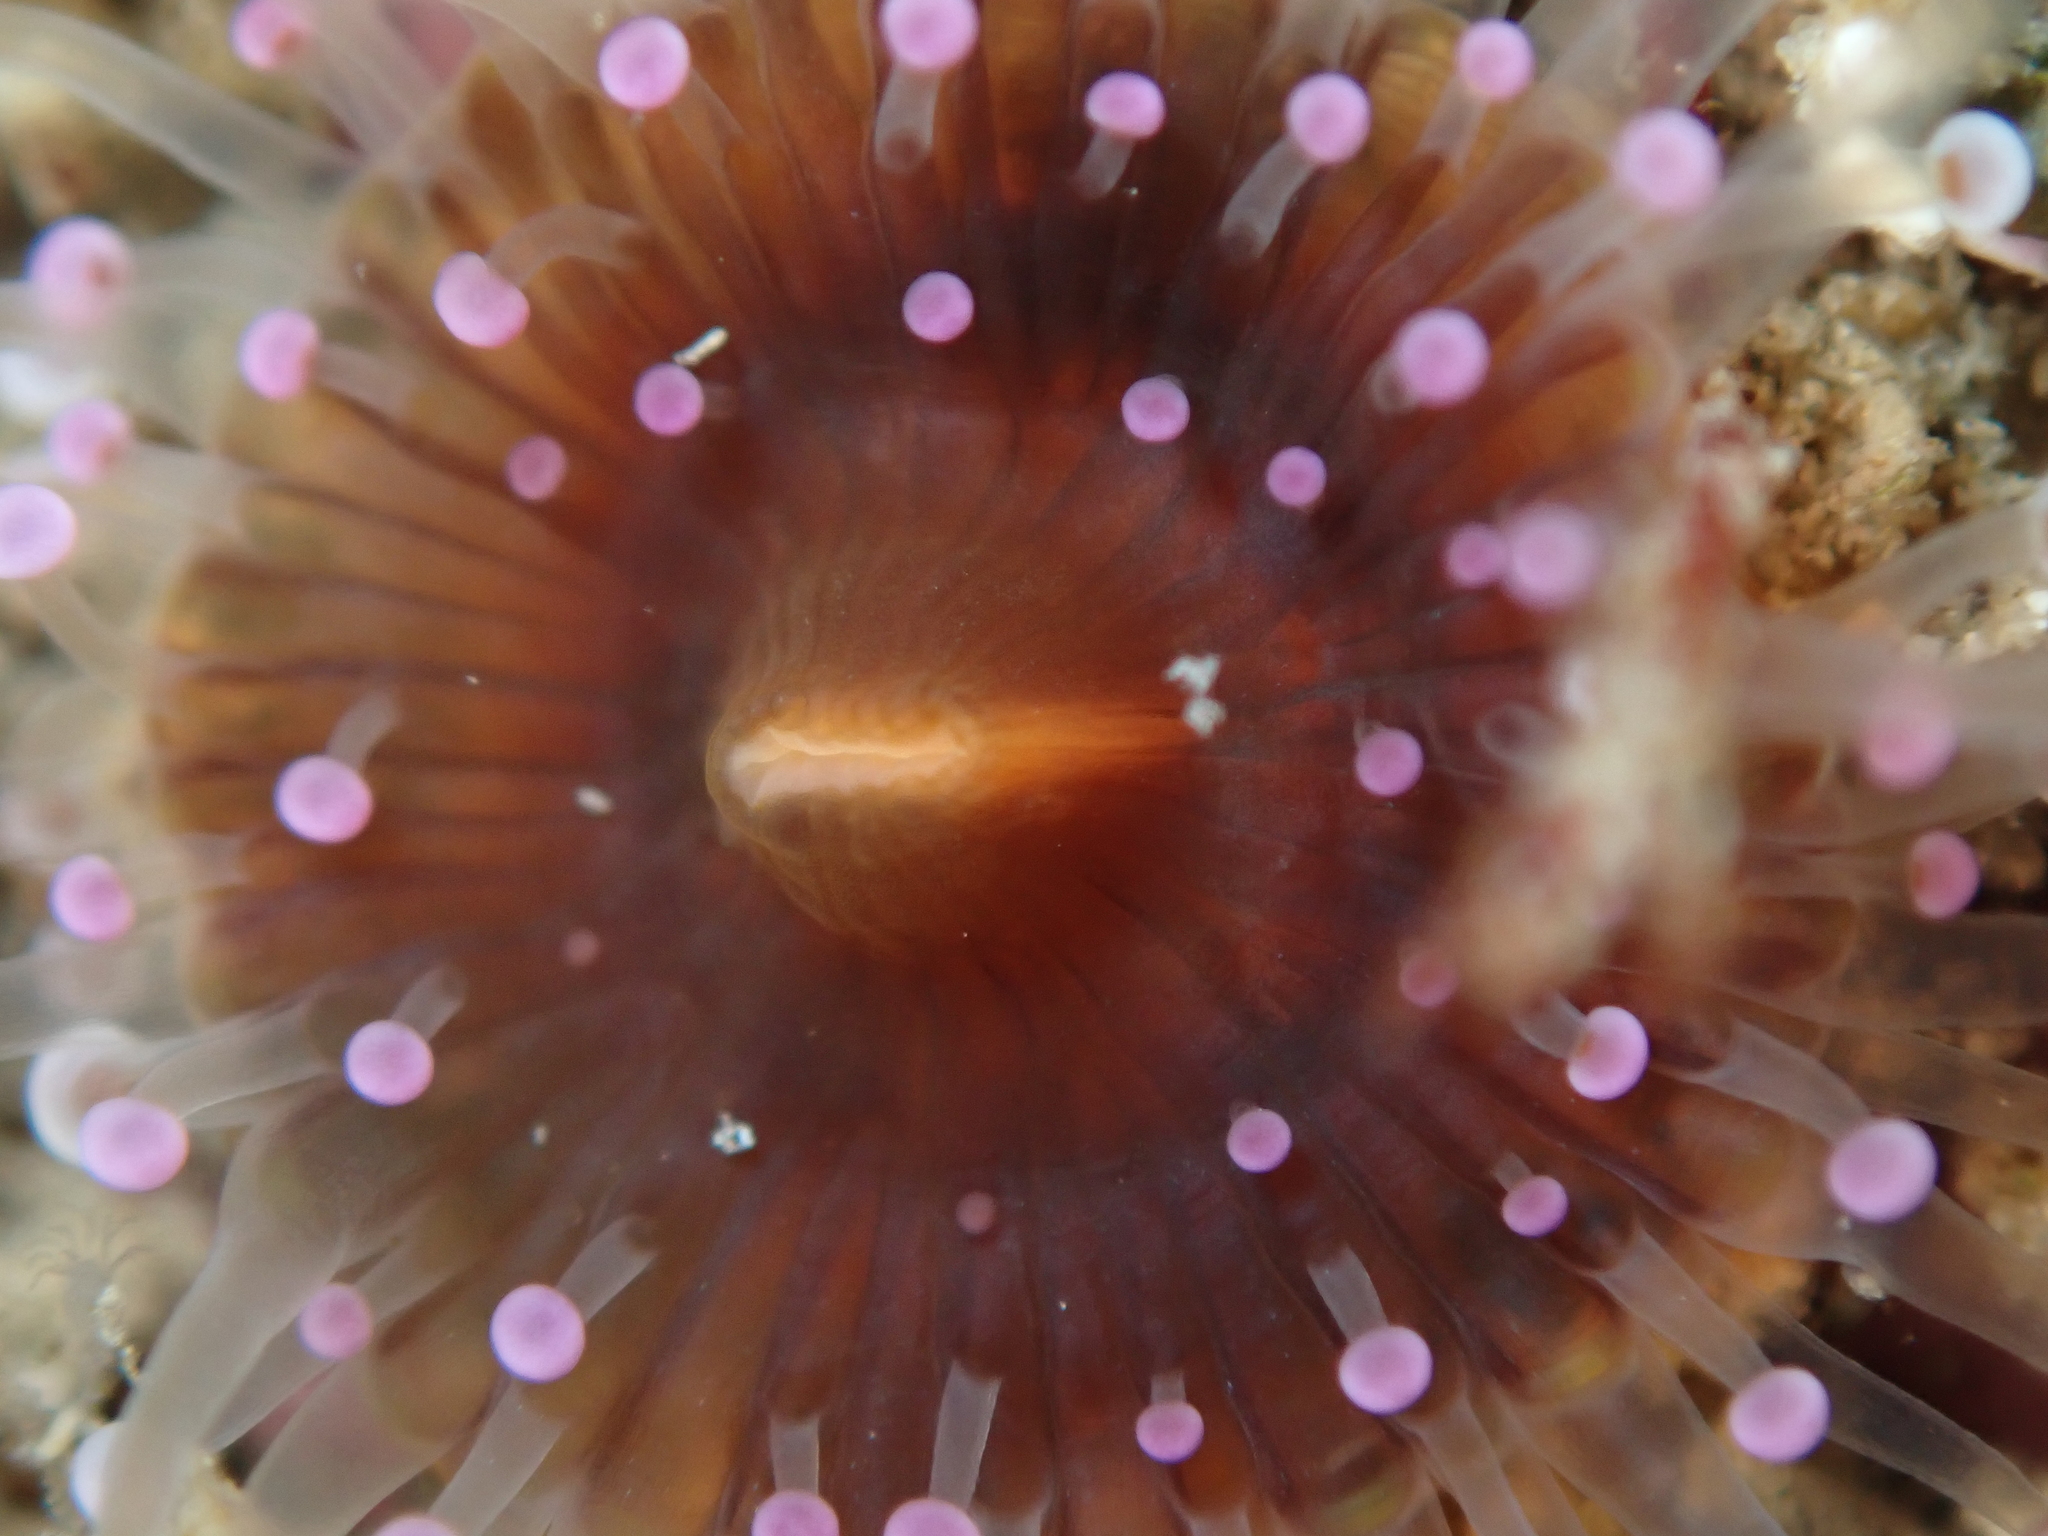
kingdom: Animalia
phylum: Cnidaria
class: Anthozoa
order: Corallimorpharia
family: Corallimorphidae
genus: Corynactis
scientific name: Corynactis australis
